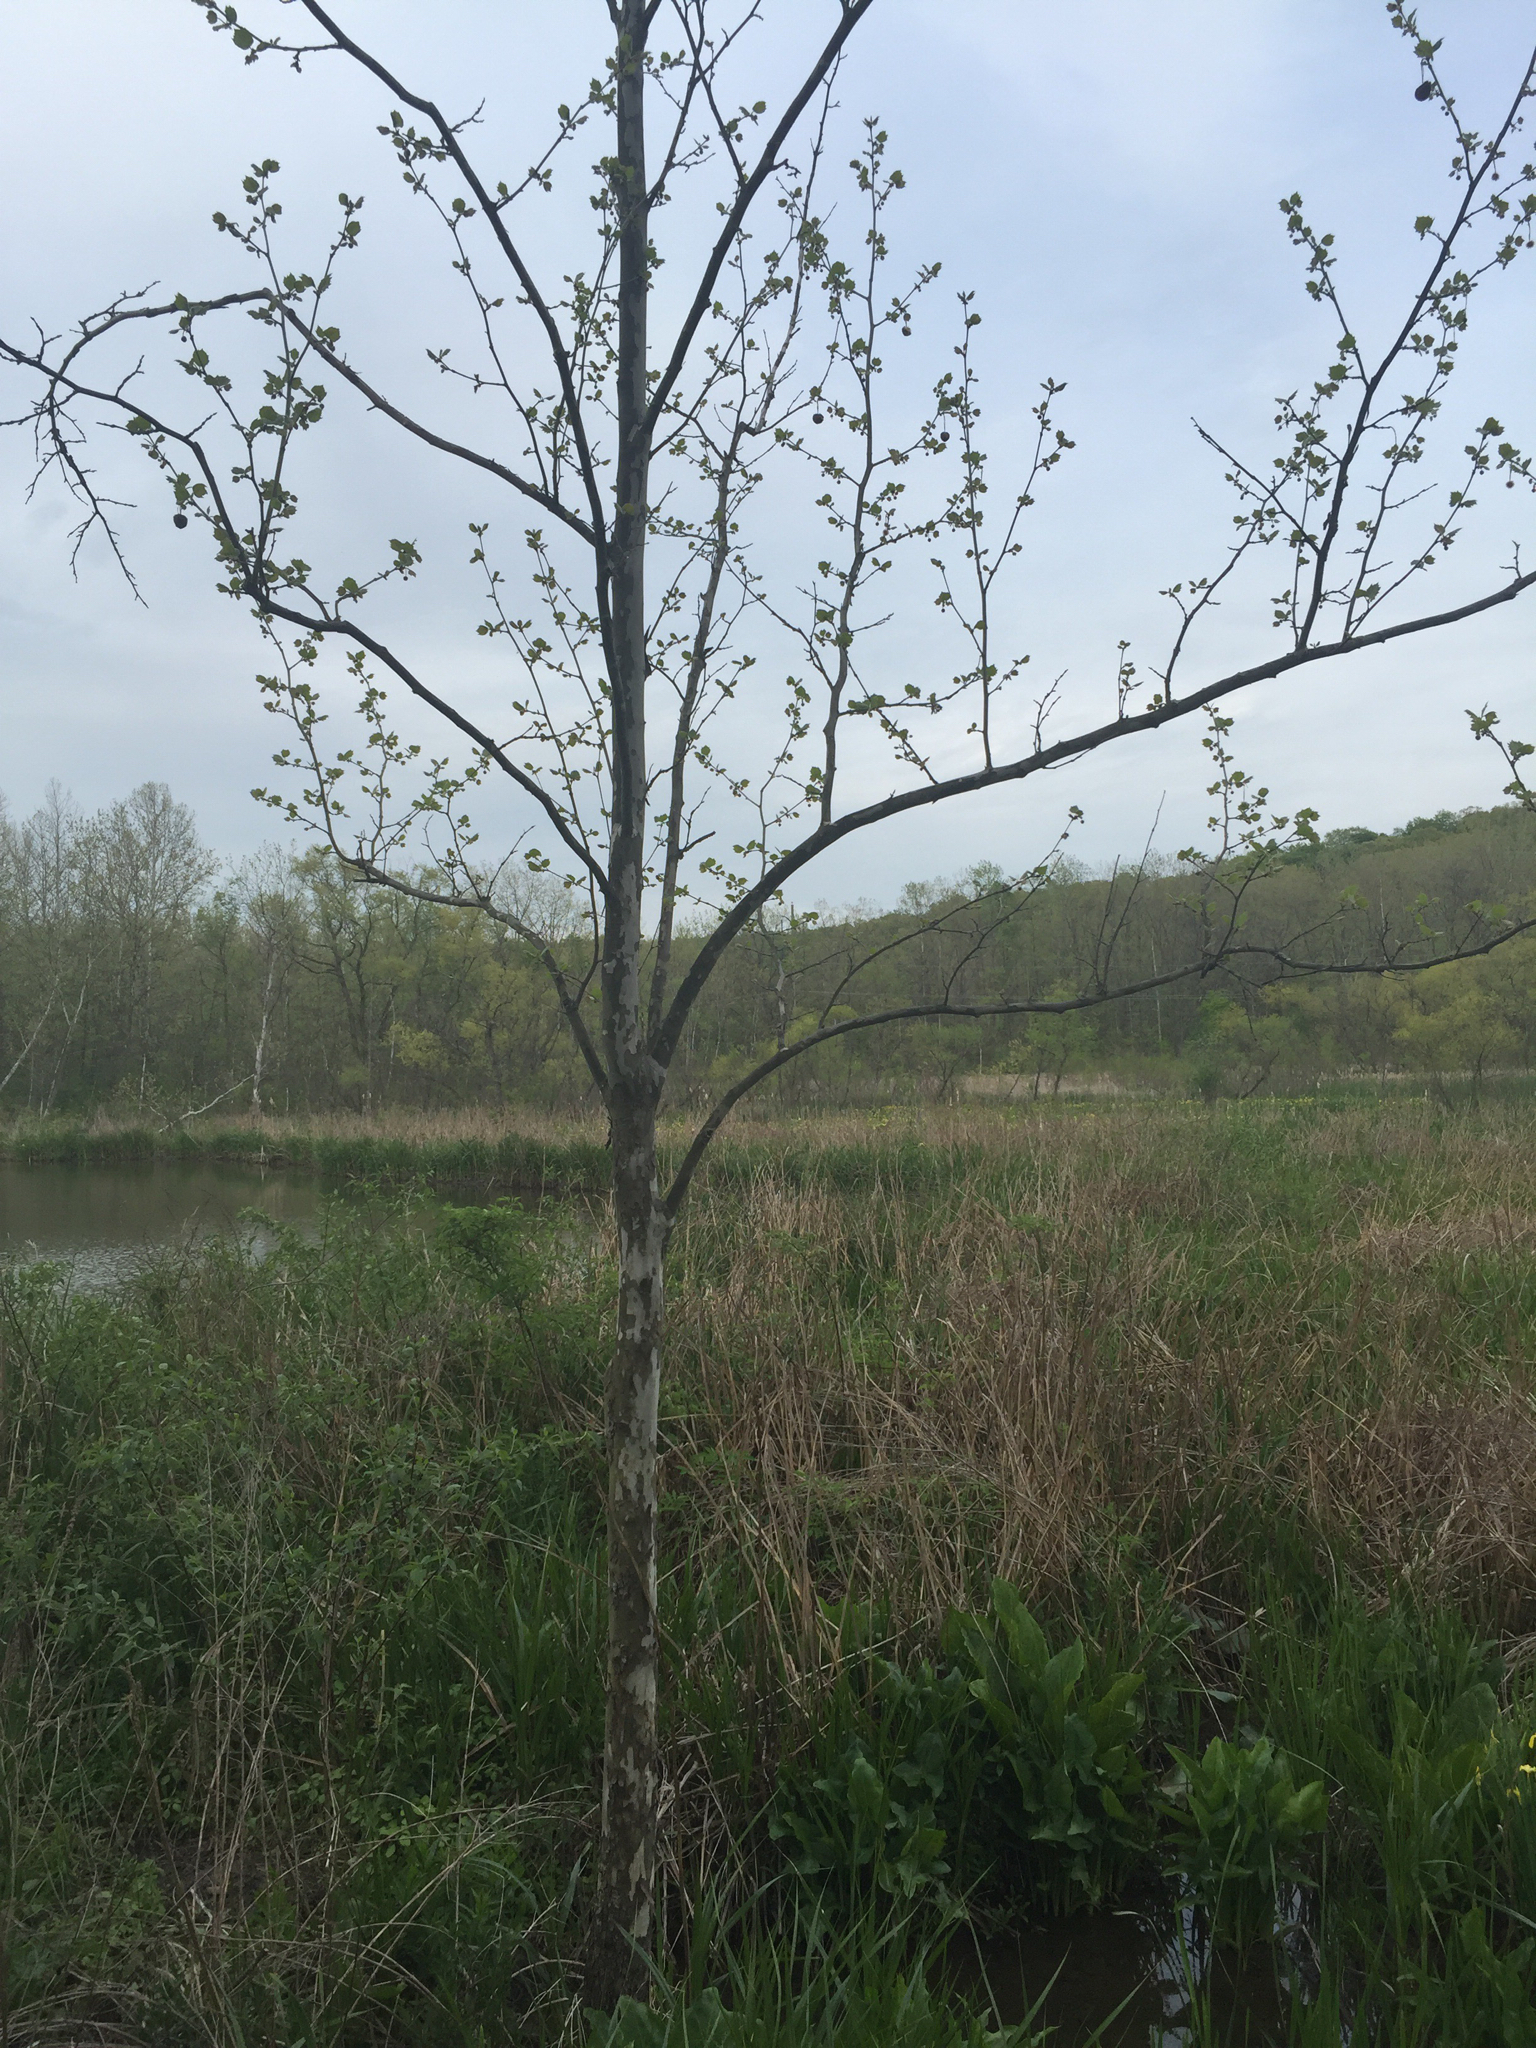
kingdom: Plantae
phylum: Tracheophyta
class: Magnoliopsida
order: Proteales
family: Platanaceae
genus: Platanus
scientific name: Platanus occidentalis
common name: American sycamore
